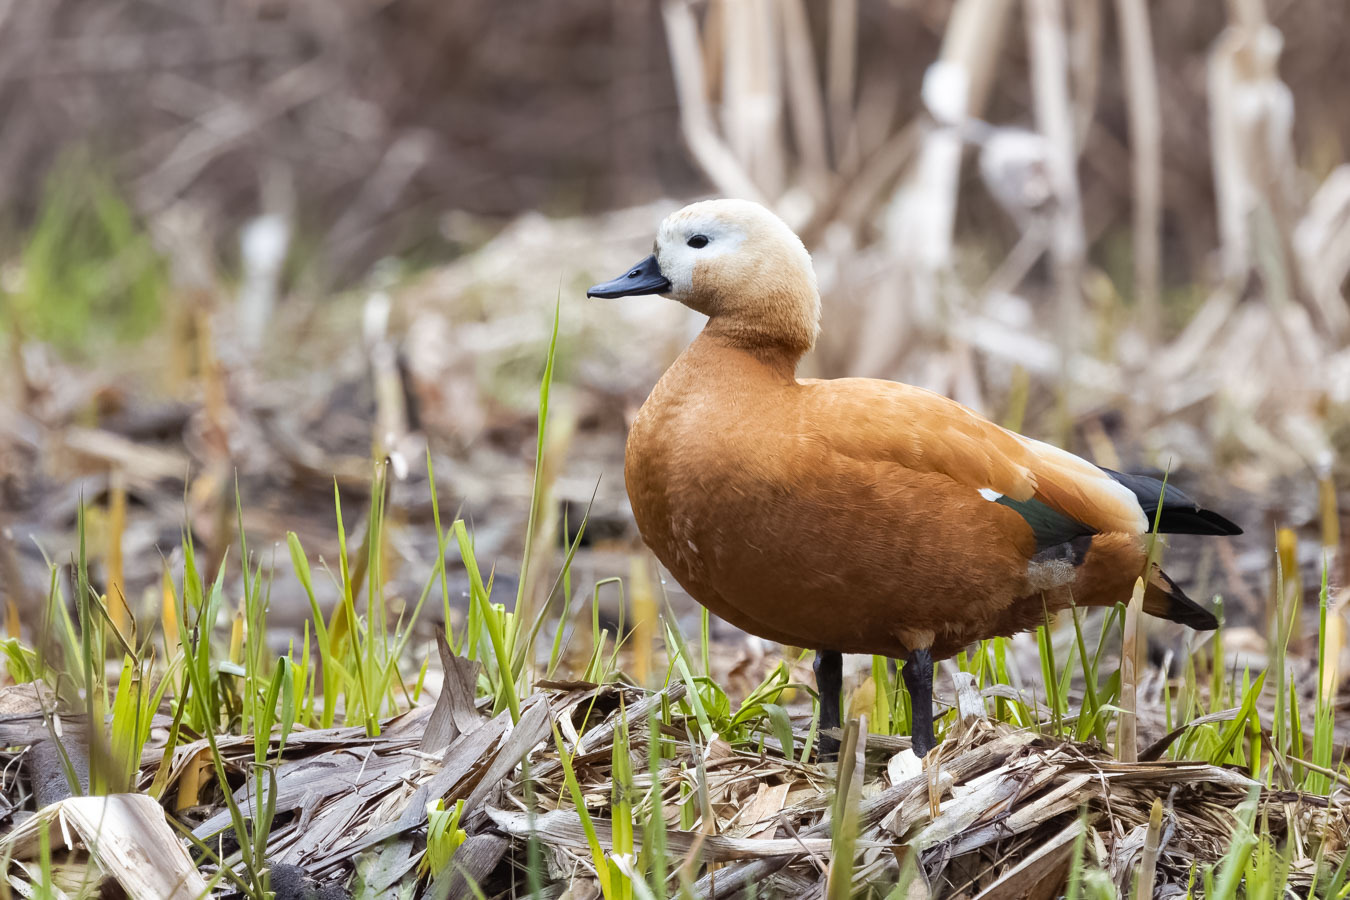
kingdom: Animalia
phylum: Chordata
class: Aves
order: Anseriformes
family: Anatidae
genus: Tadorna
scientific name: Tadorna ferruginea
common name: Ruddy shelduck
